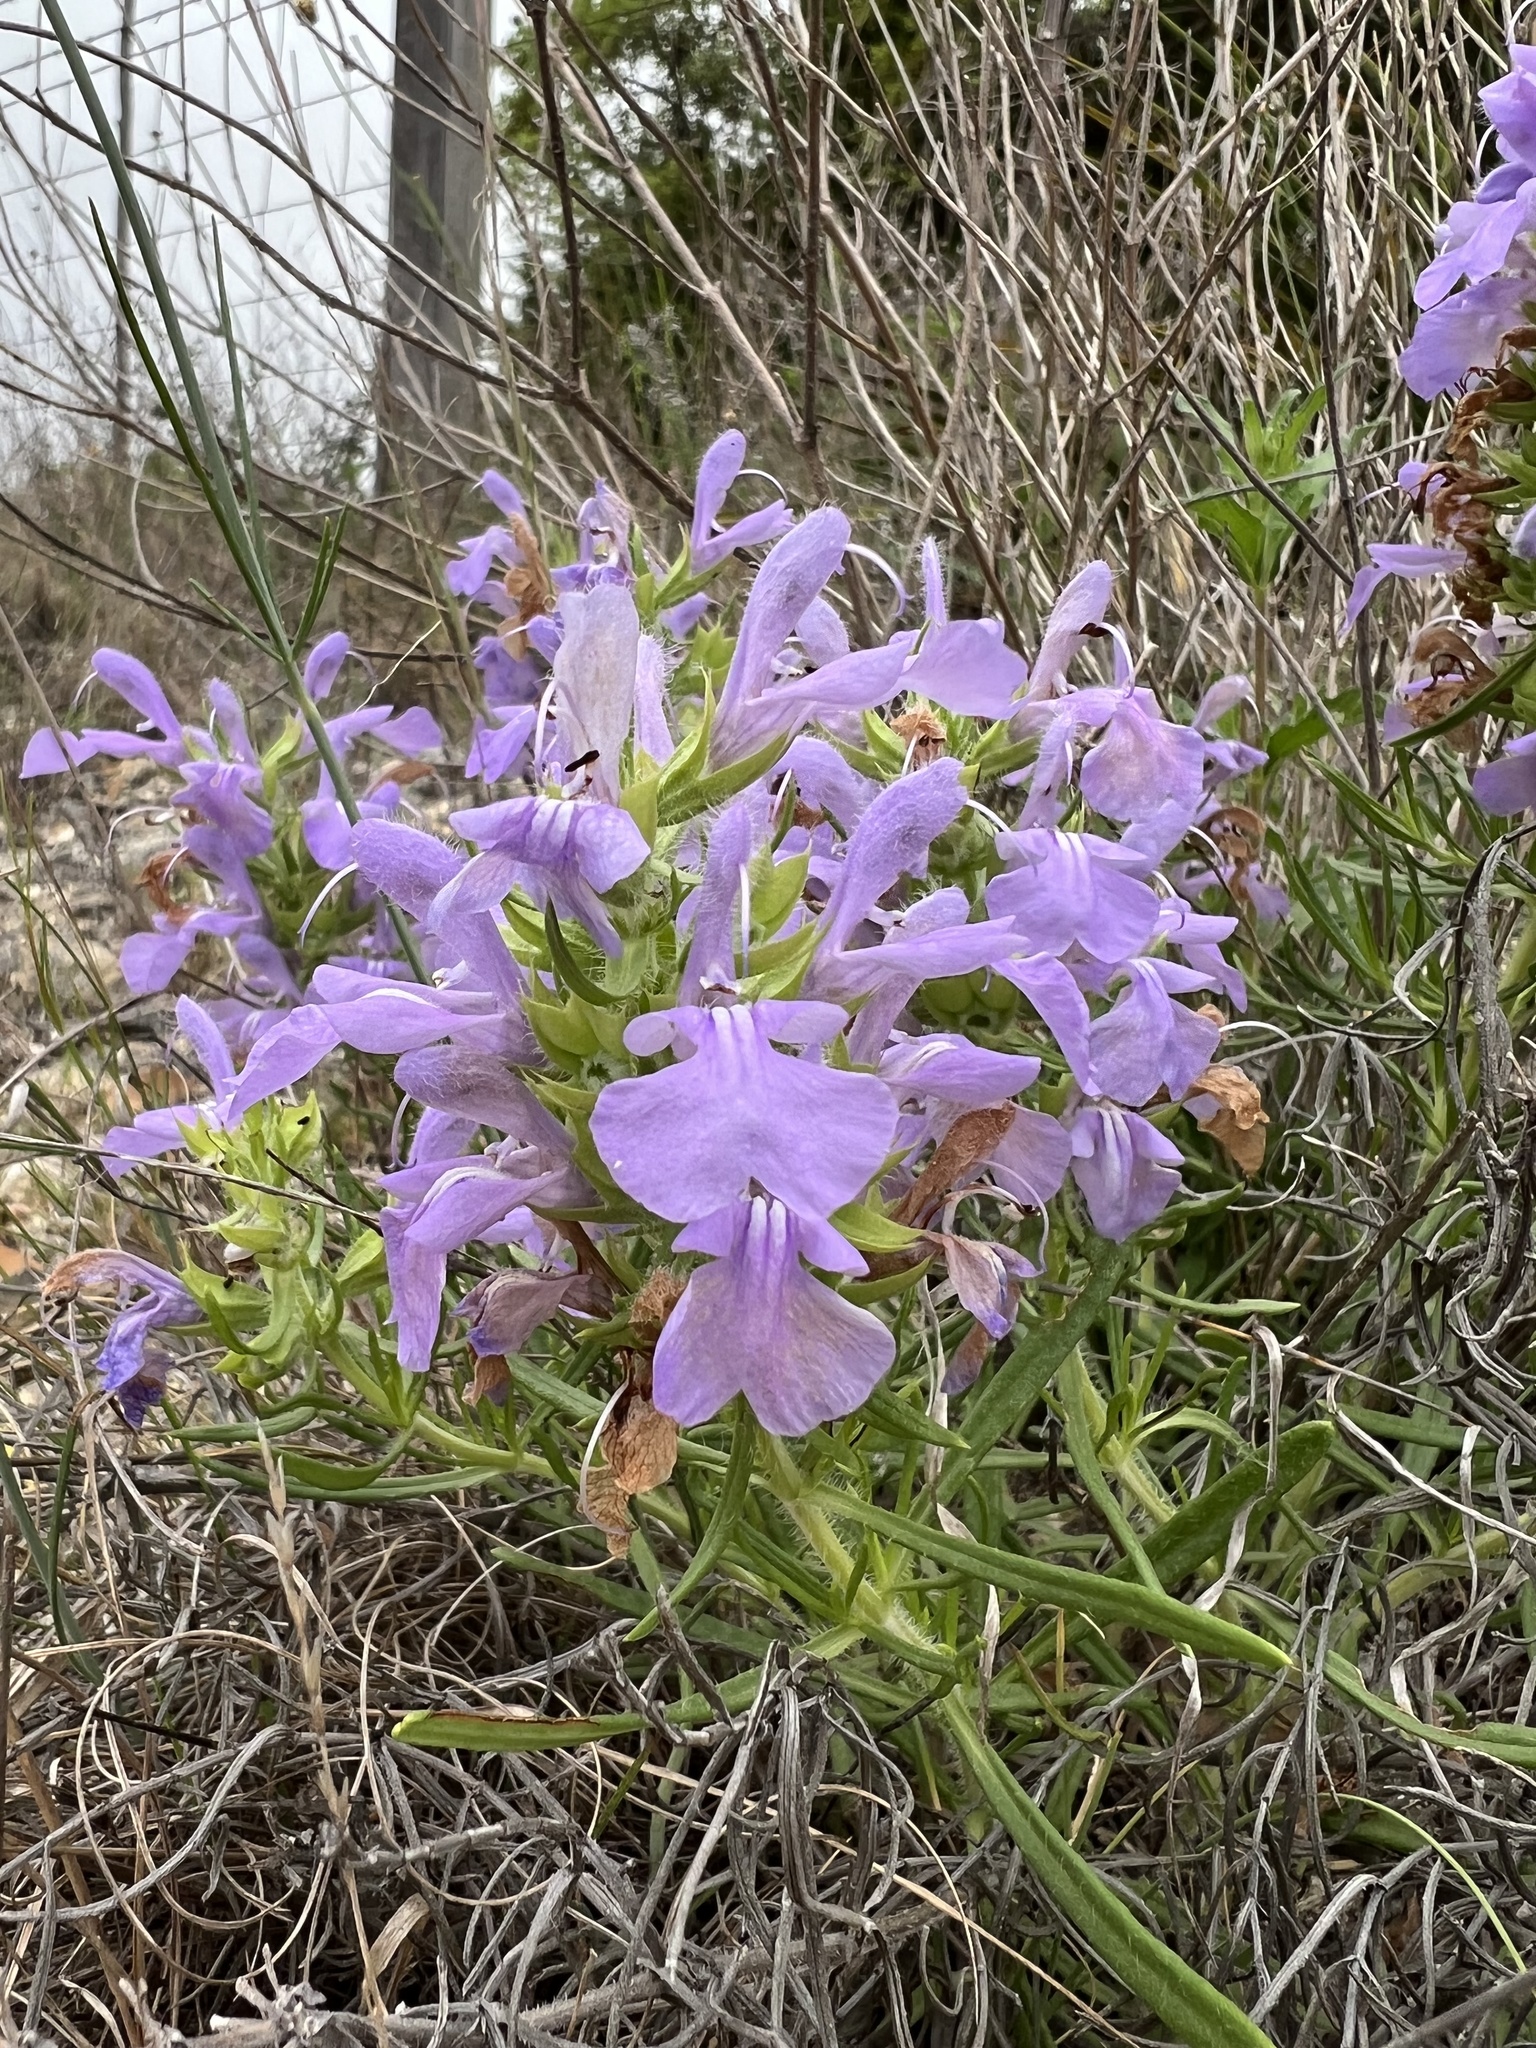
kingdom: Plantae
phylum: Tracheophyta
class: Magnoliopsida
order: Lamiales
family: Lamiaceae
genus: Salvia
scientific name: Salvia engelmannii
